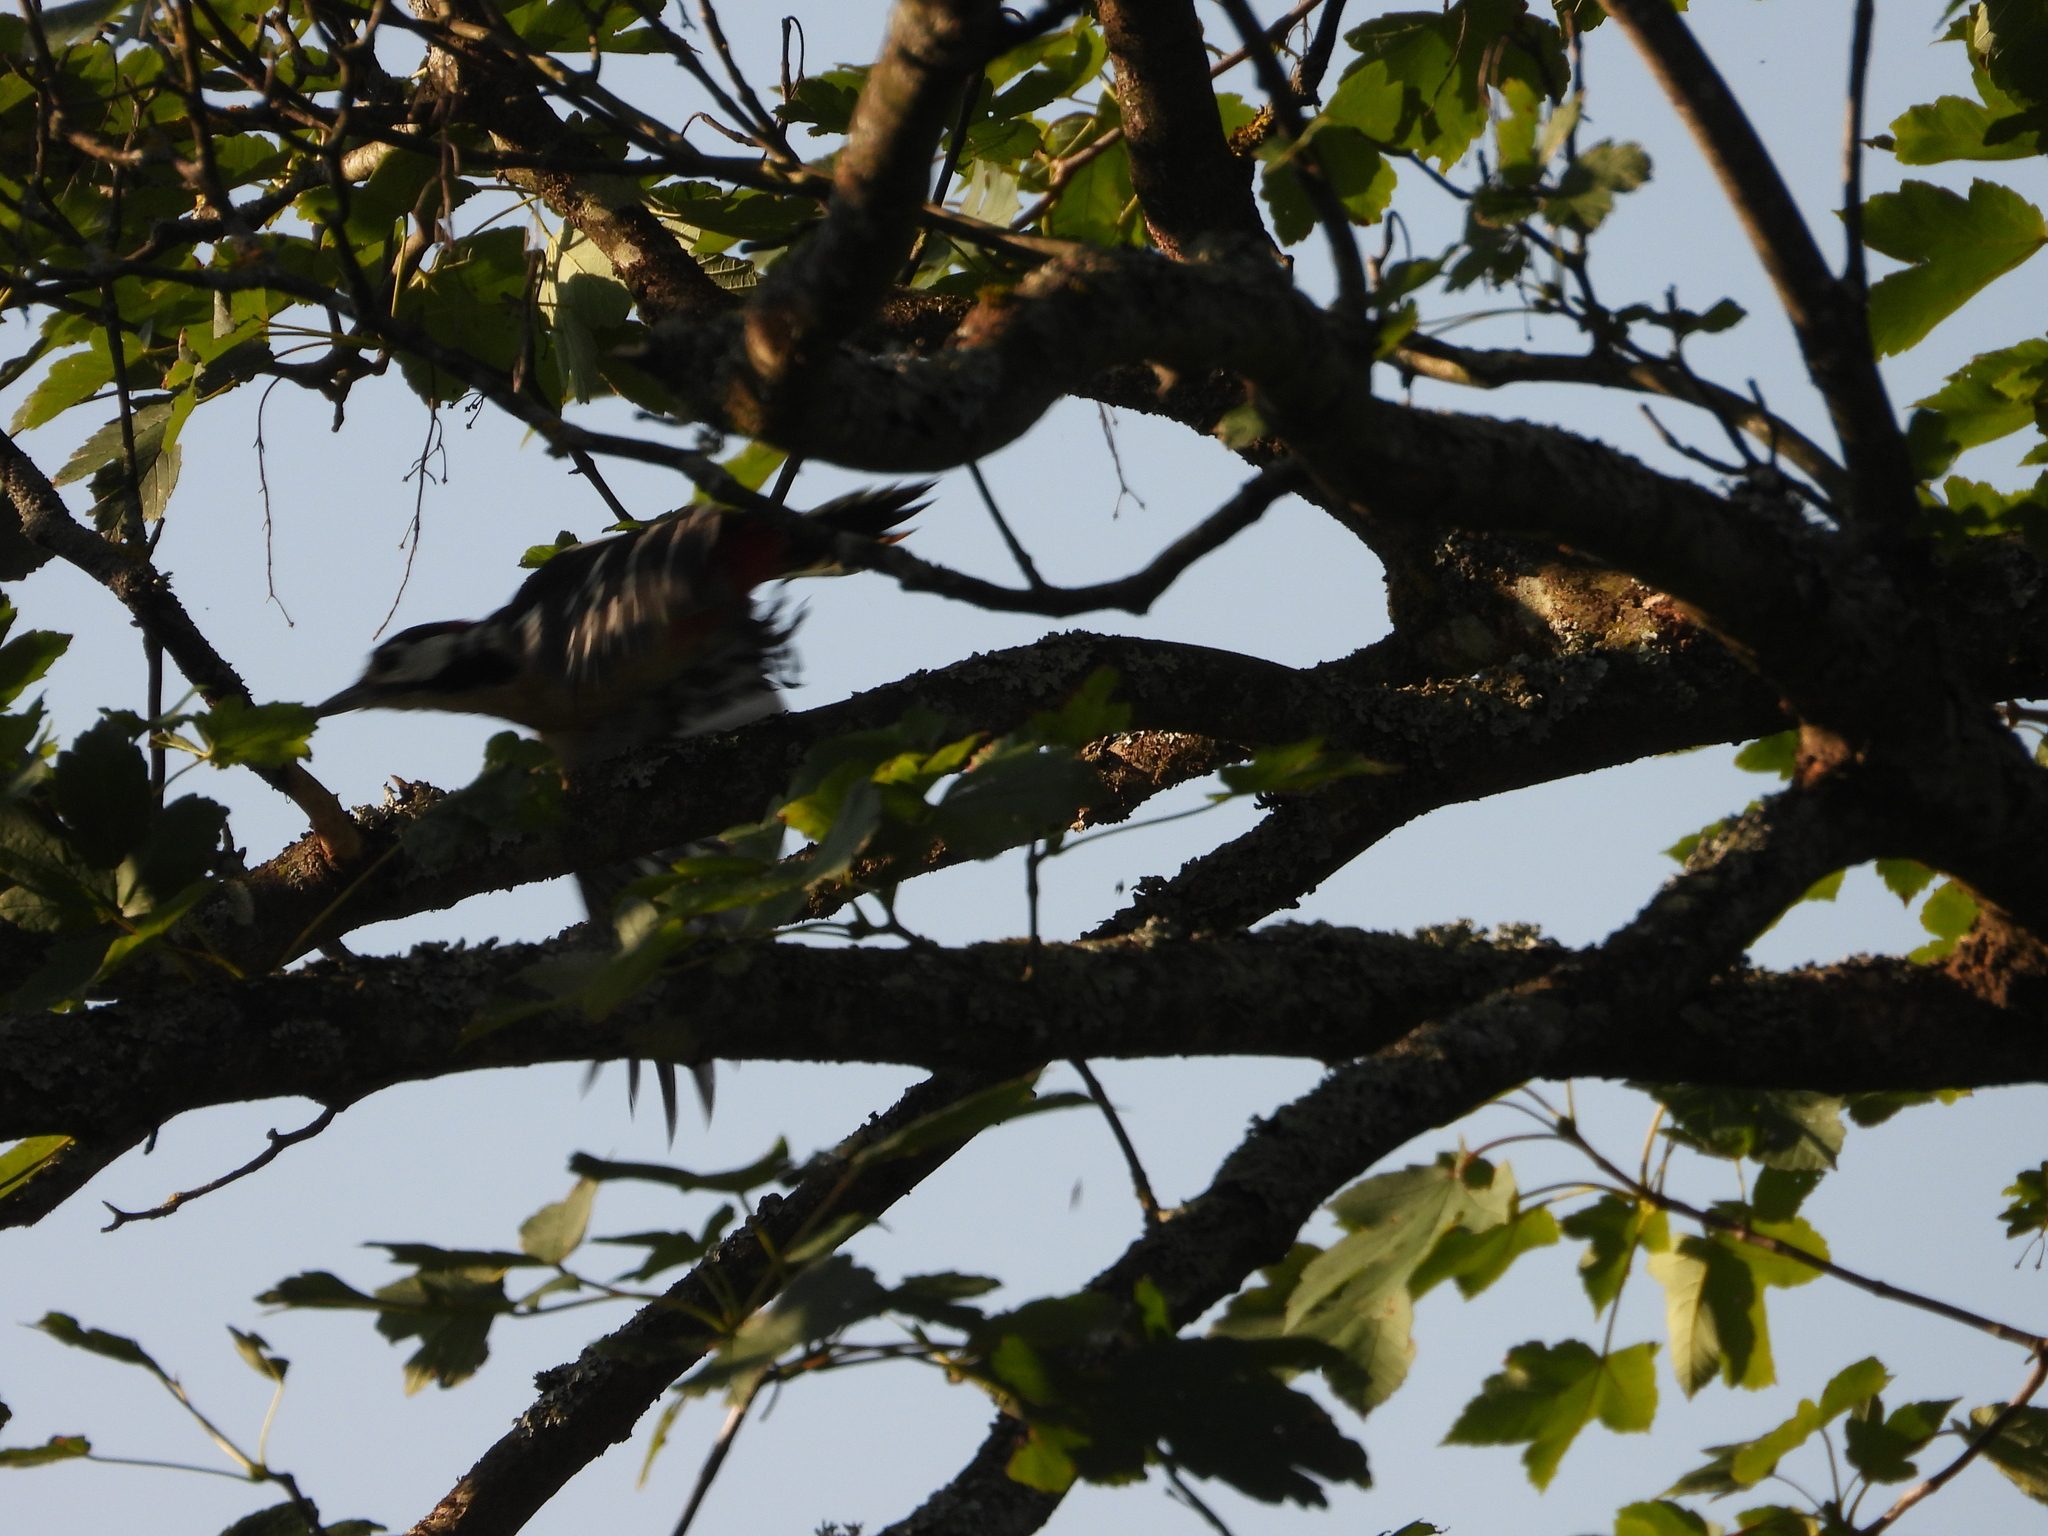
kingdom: Animalia
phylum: Chordata
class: Aves
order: Piciformes
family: Picidae
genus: Dendrocopos
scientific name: Dendrocopos major
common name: Great spotted woodpecker
